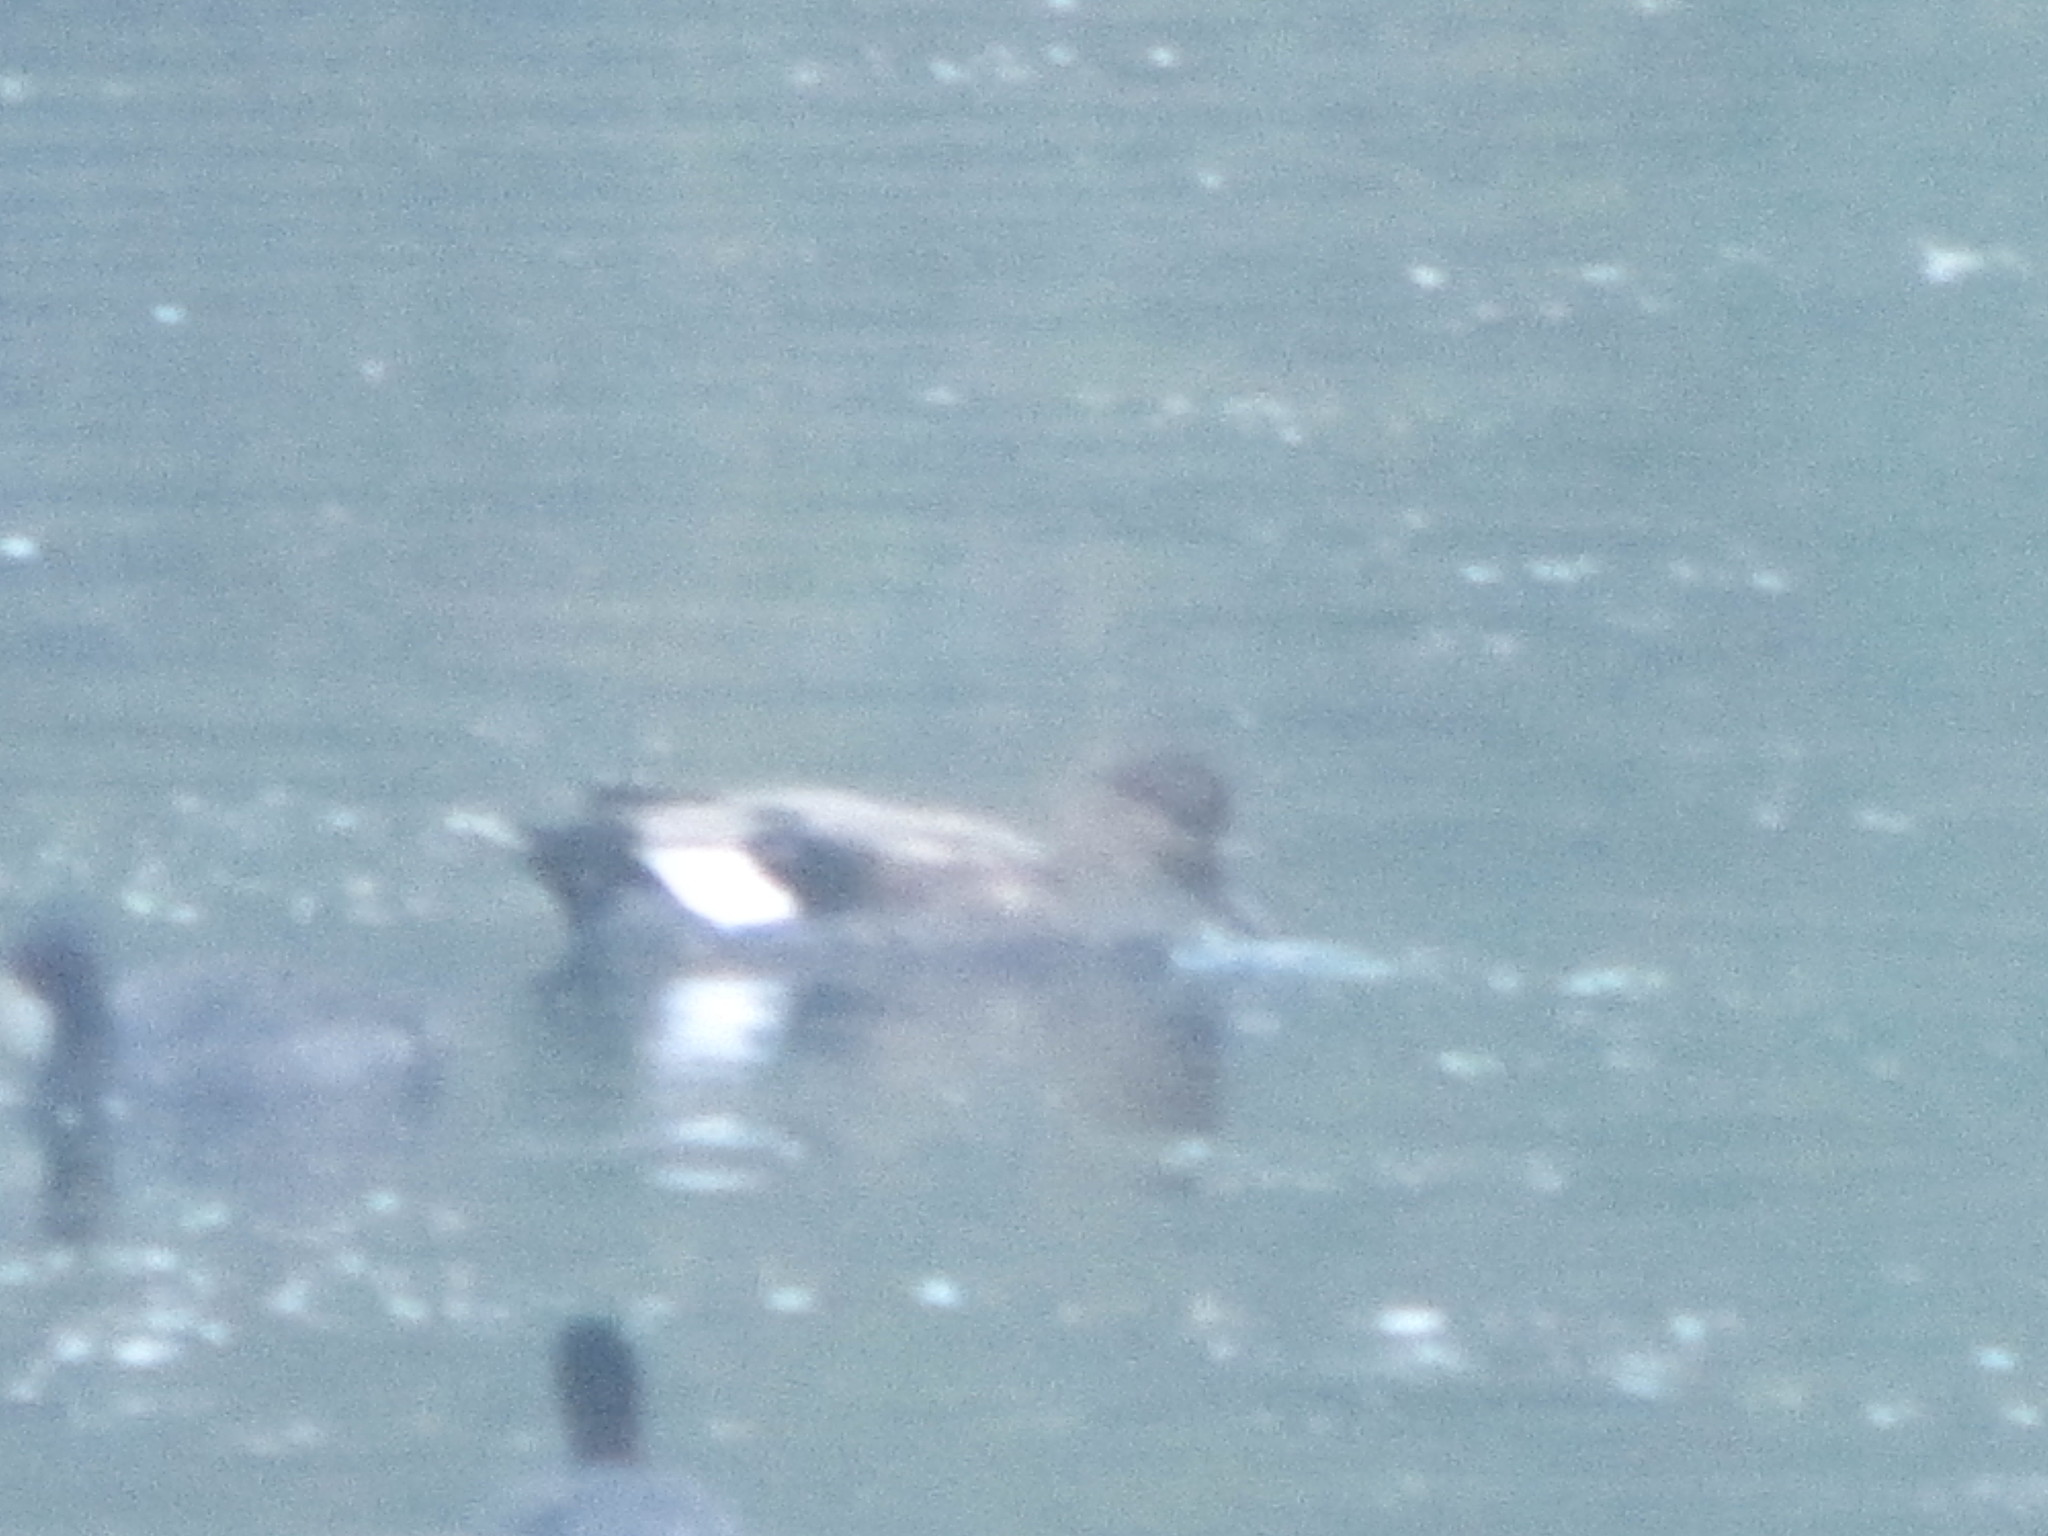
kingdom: Animalia
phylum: Chordata
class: Aves
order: Anseriformes
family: Anatidae
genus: Mareca
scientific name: Mareca strepera
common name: Gadwall
